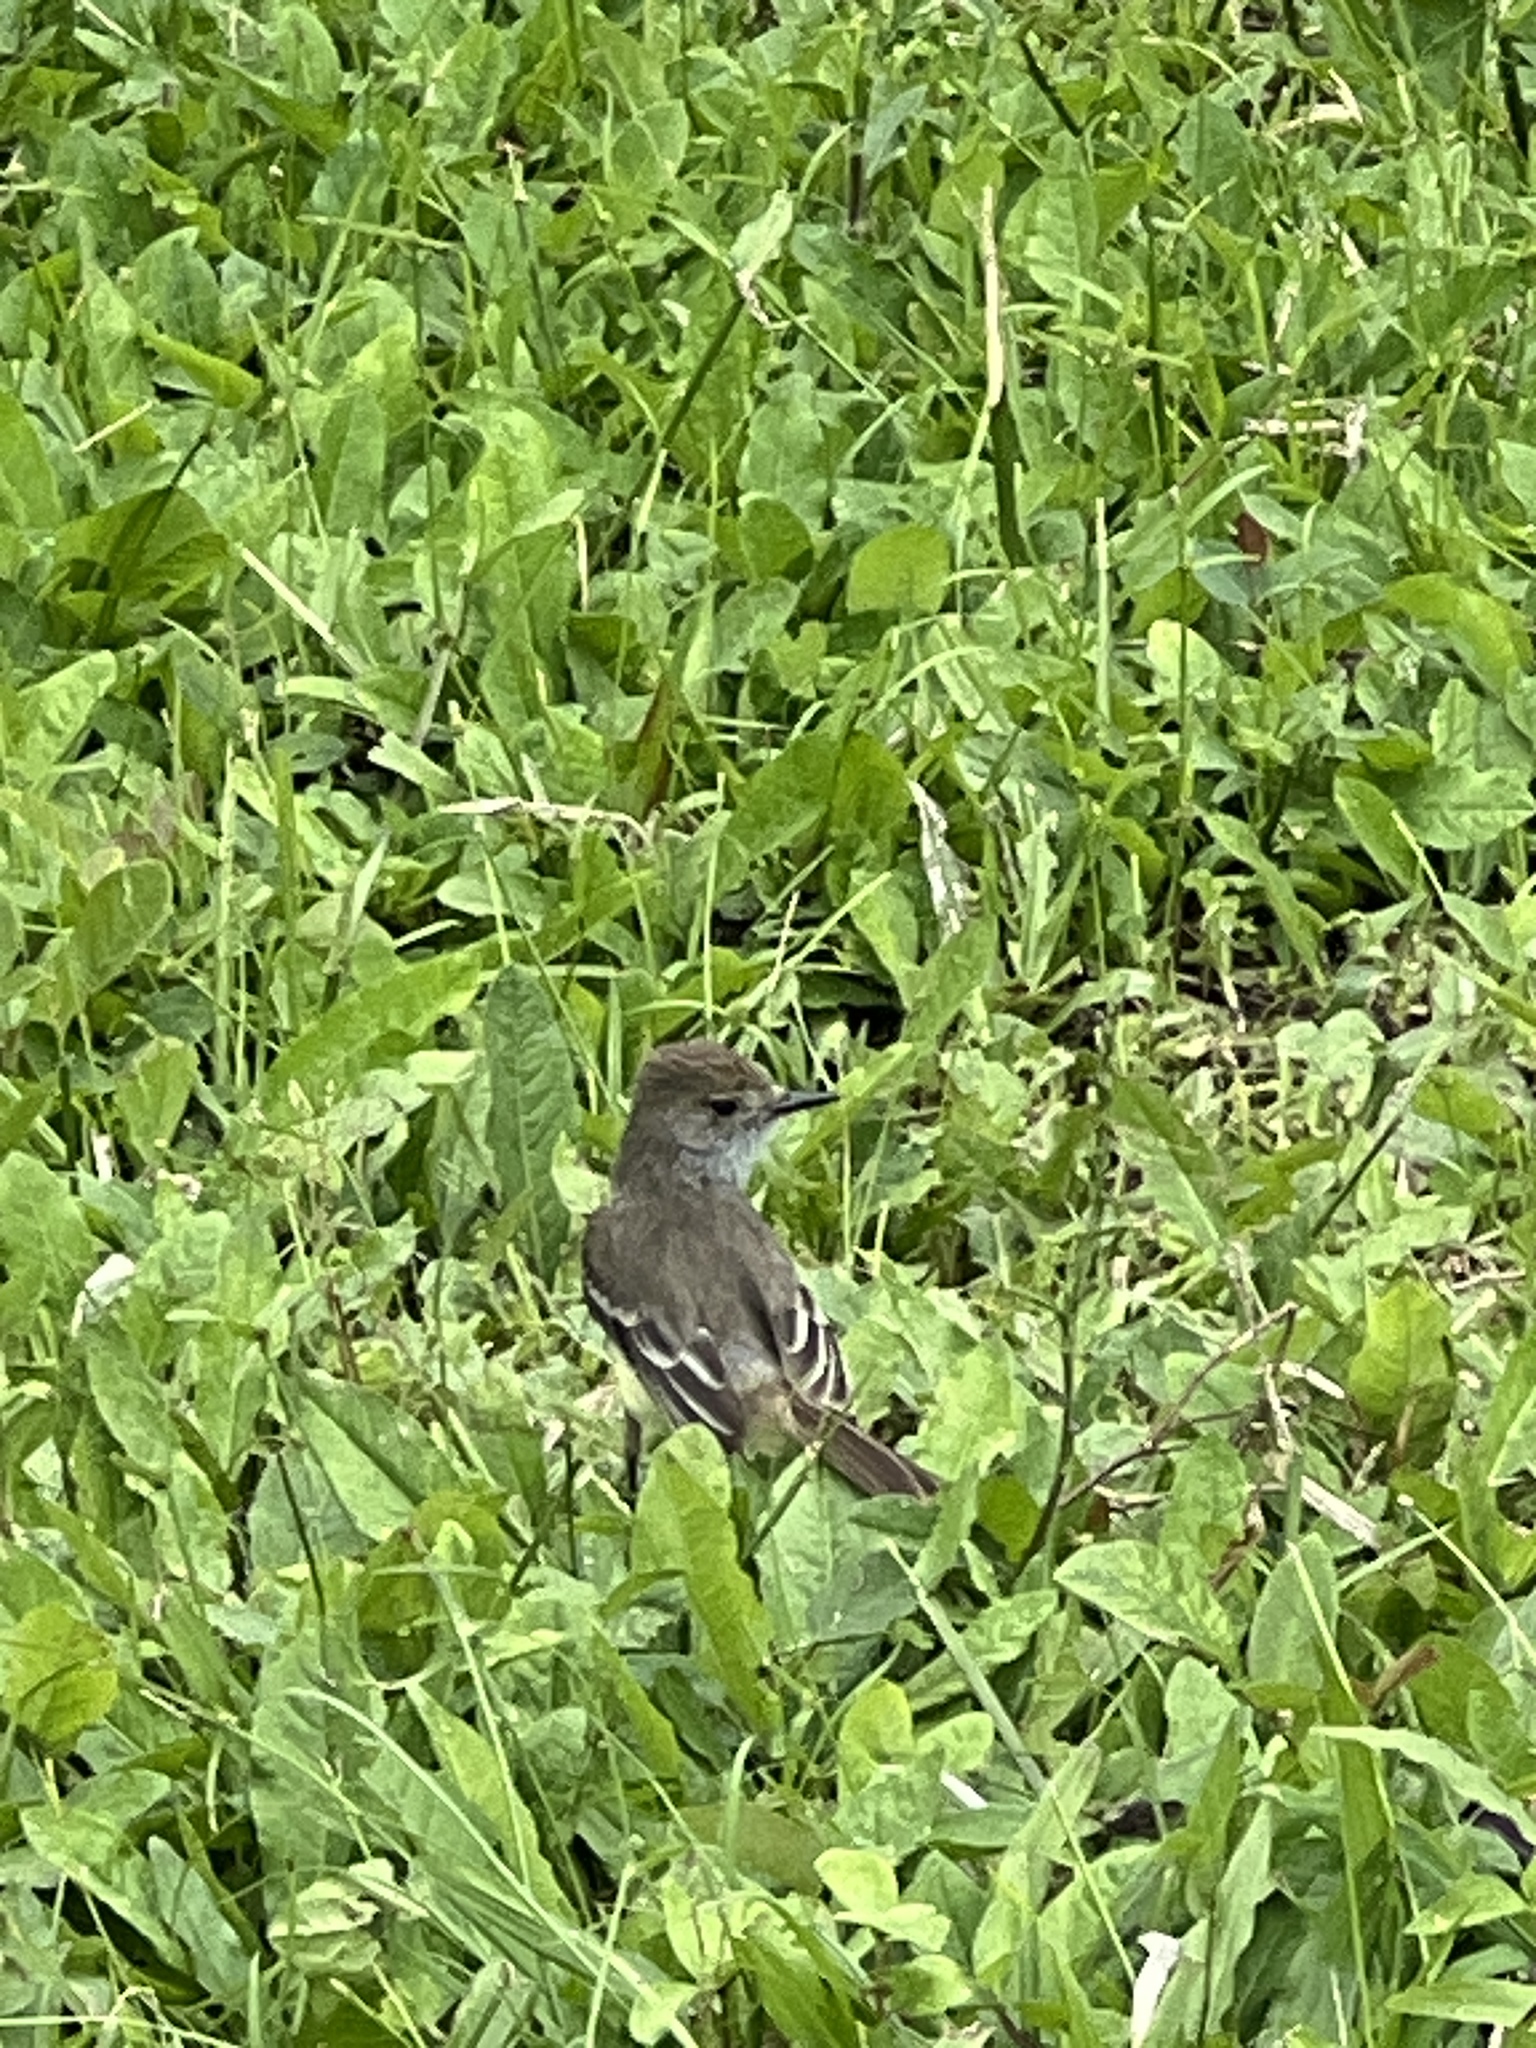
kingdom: Animalia
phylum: Chordata
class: Aves
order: Passeriformes
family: Tyrannidae
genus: Myiarchus
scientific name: Myiarchus magnirostris
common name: Galapagos flycatcher
